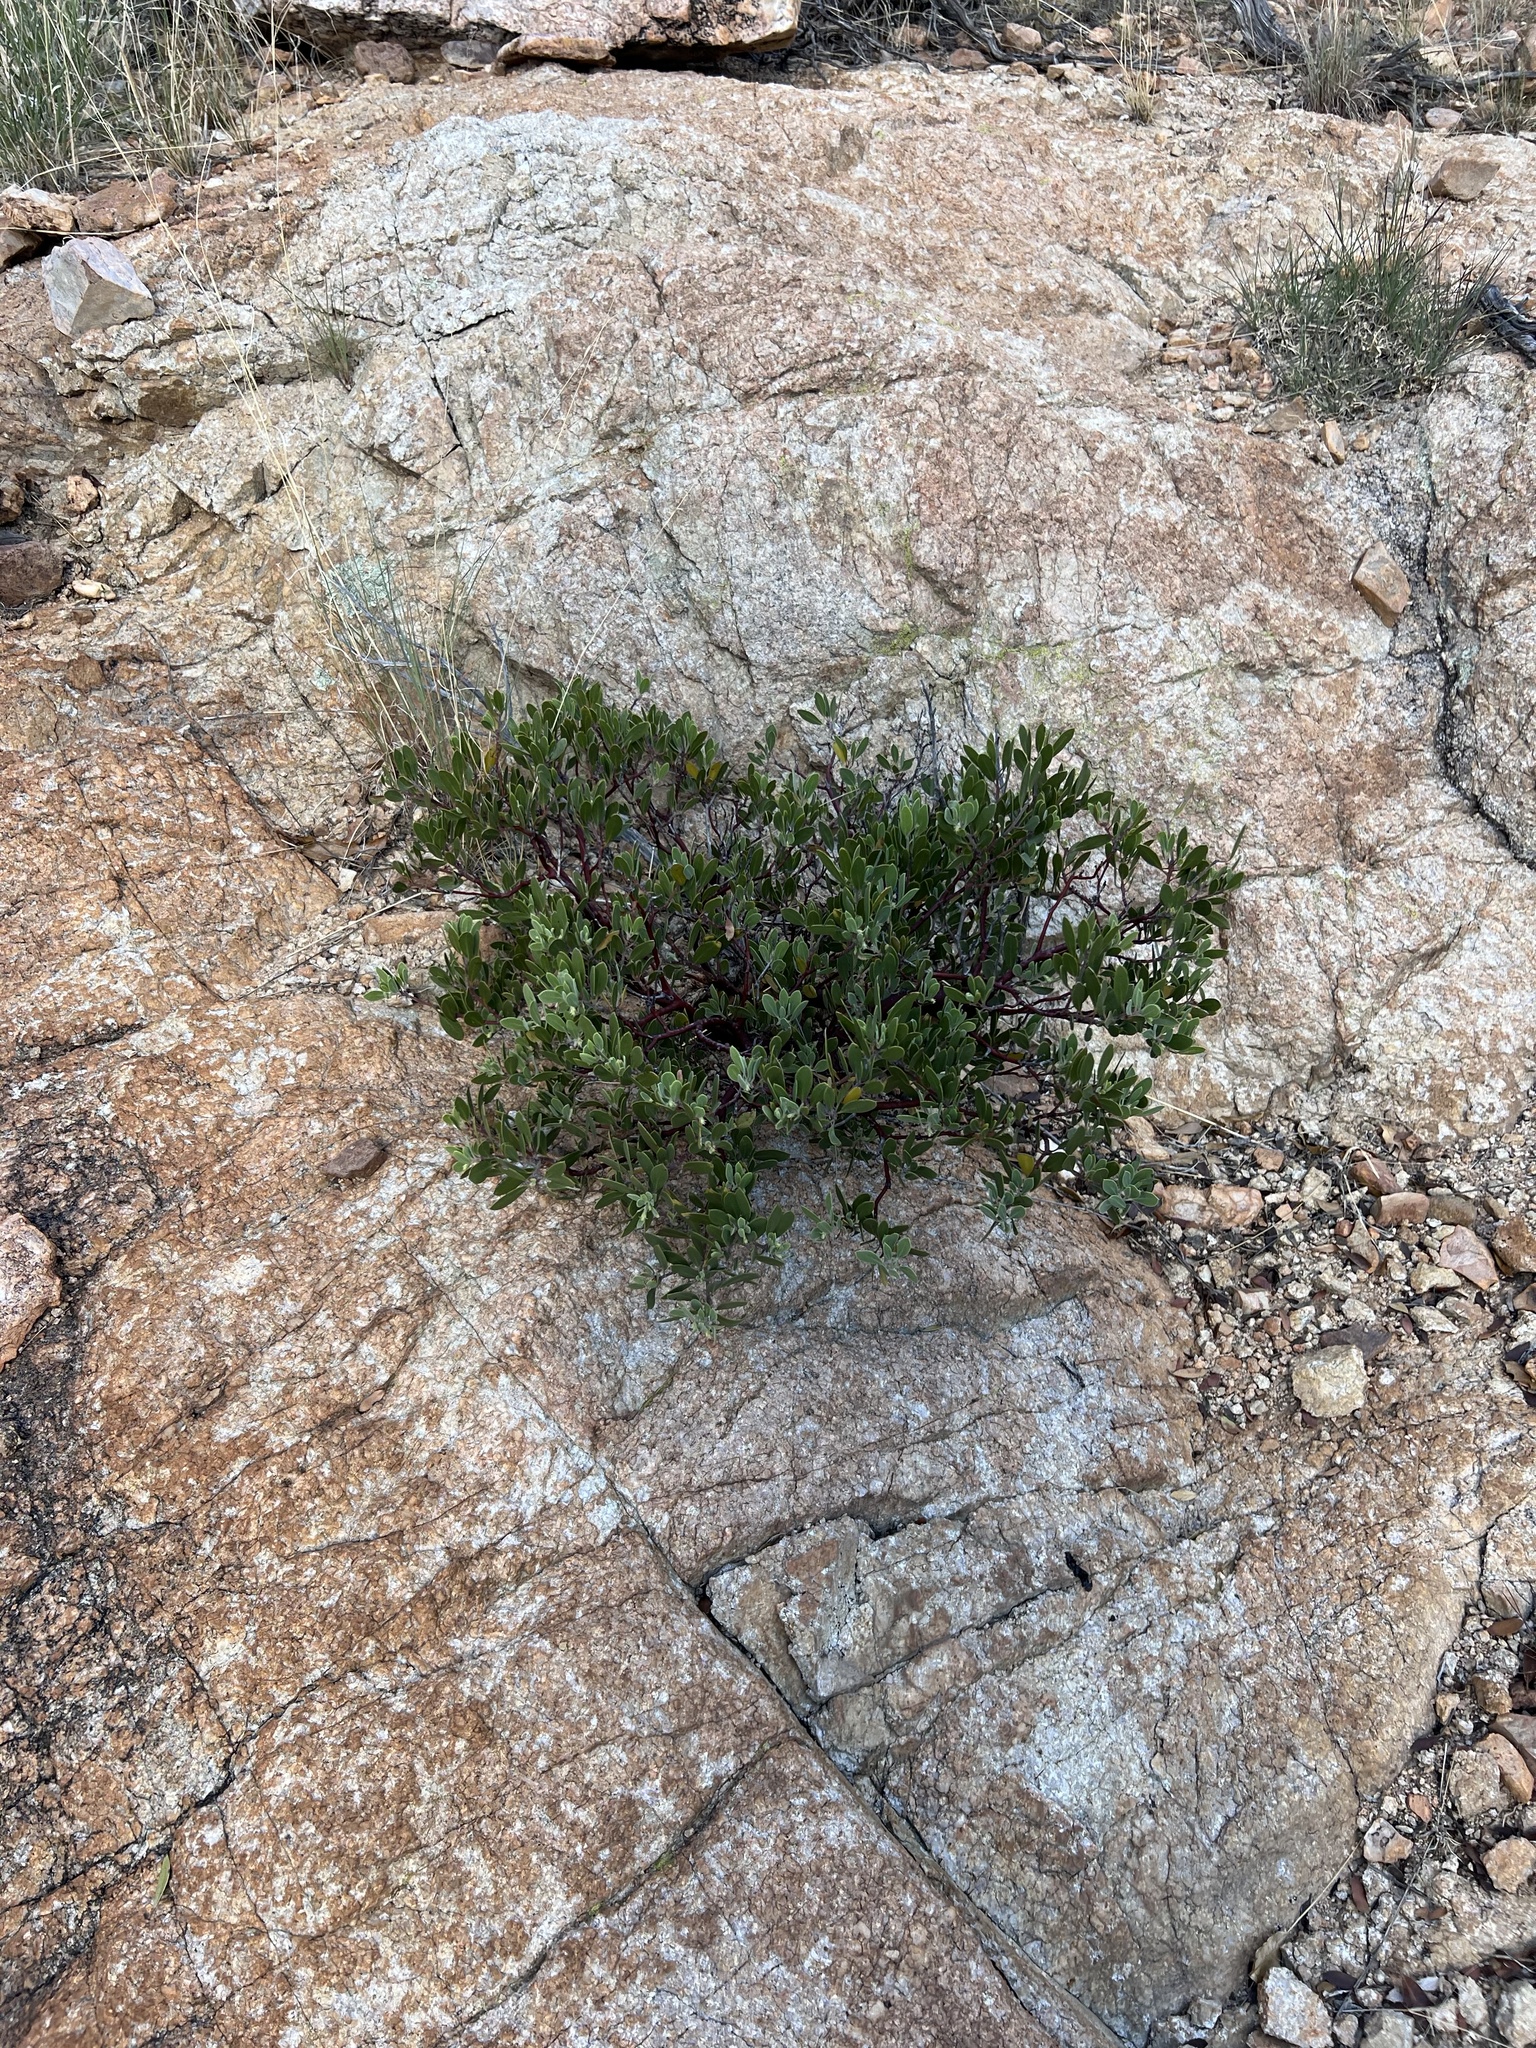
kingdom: Plantae
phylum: Tracheophyta
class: Magnoliopsida
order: Ericales
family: Ericaceae
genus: Arctostaphylos
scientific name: Arctostaphylos pungens
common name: Mexican manzanita
